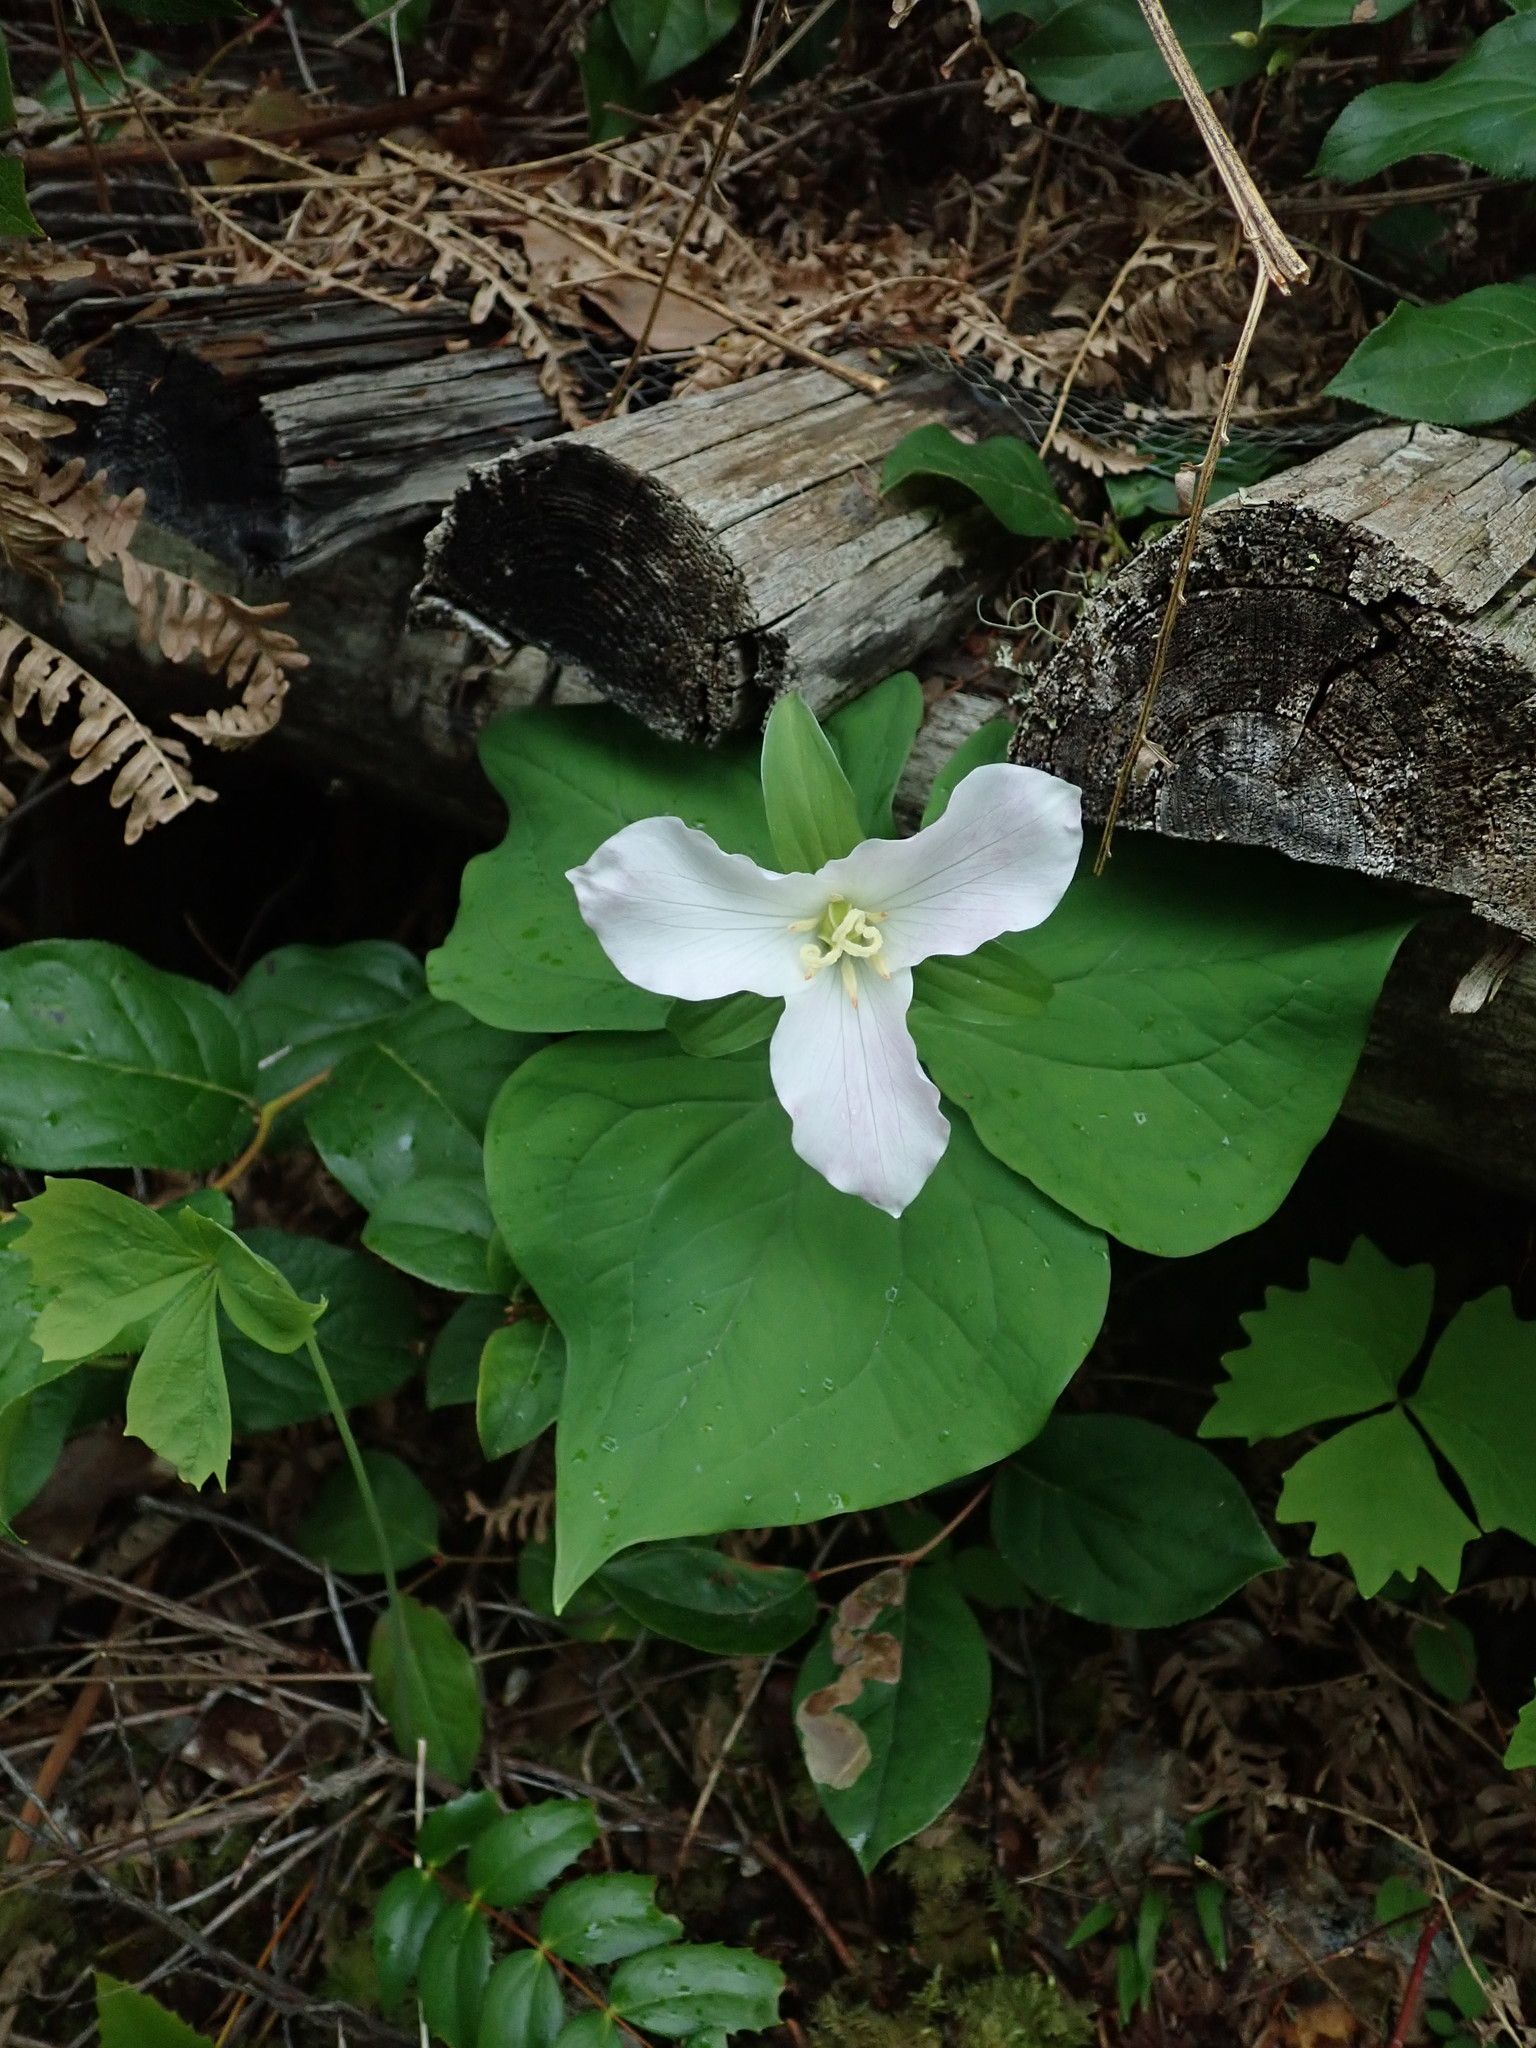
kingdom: Plantae
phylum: Tracheophyta
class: Liliopsida
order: Liliales
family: Melanthiaceae
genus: Trillium
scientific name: Trillium ovatum
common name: Pacific trillium
